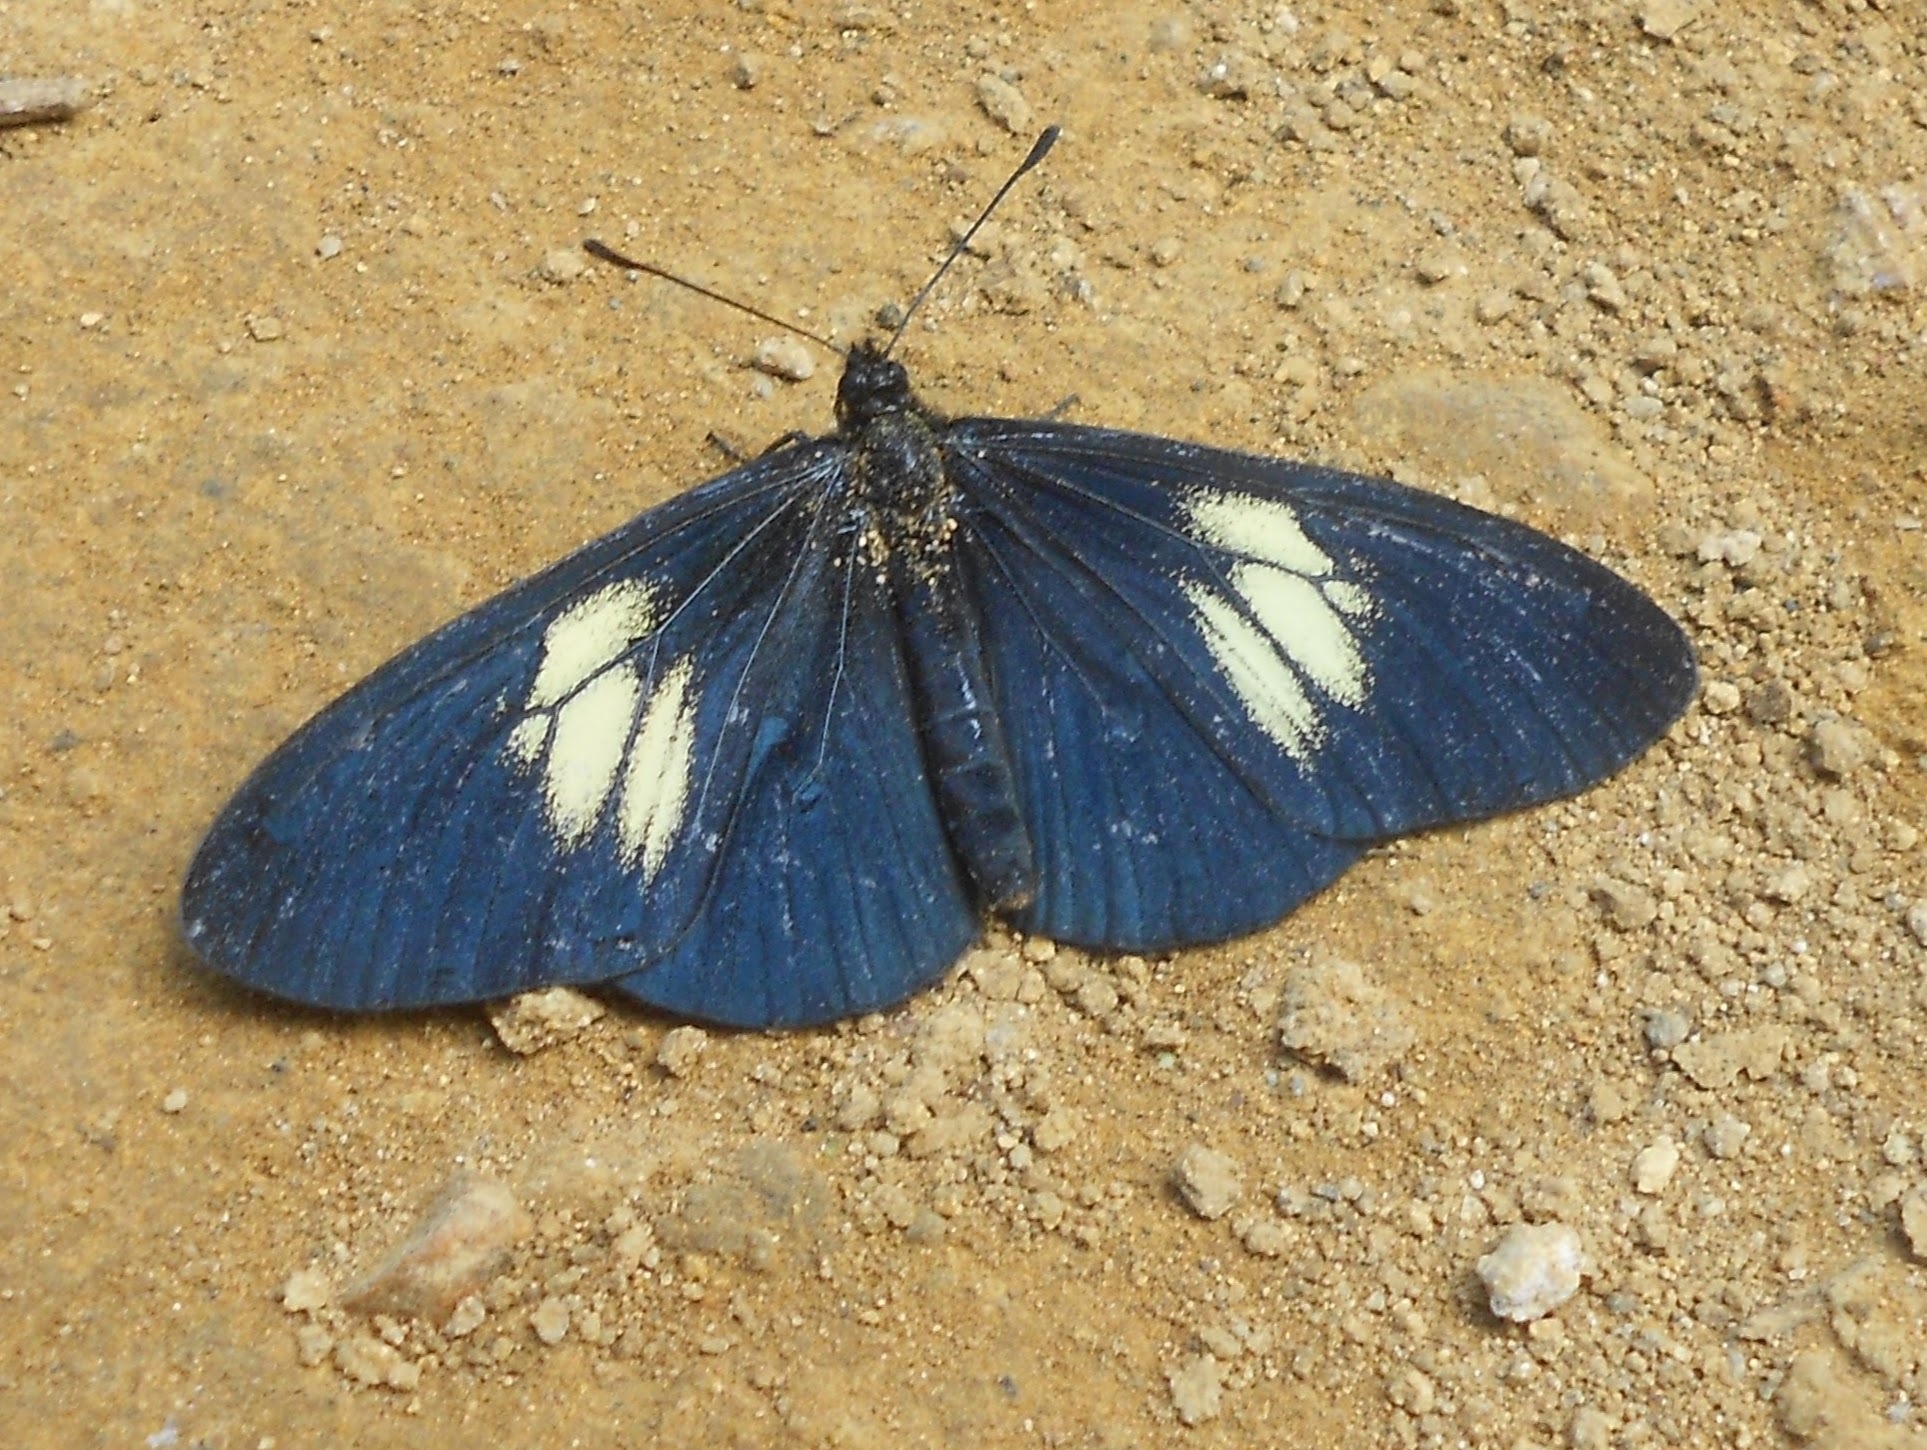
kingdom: Animalia
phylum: Arthropoda
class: Insecta
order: Lepidoptera
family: Nymphalidae
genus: Acraea
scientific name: Acraea Altinote ozomene
